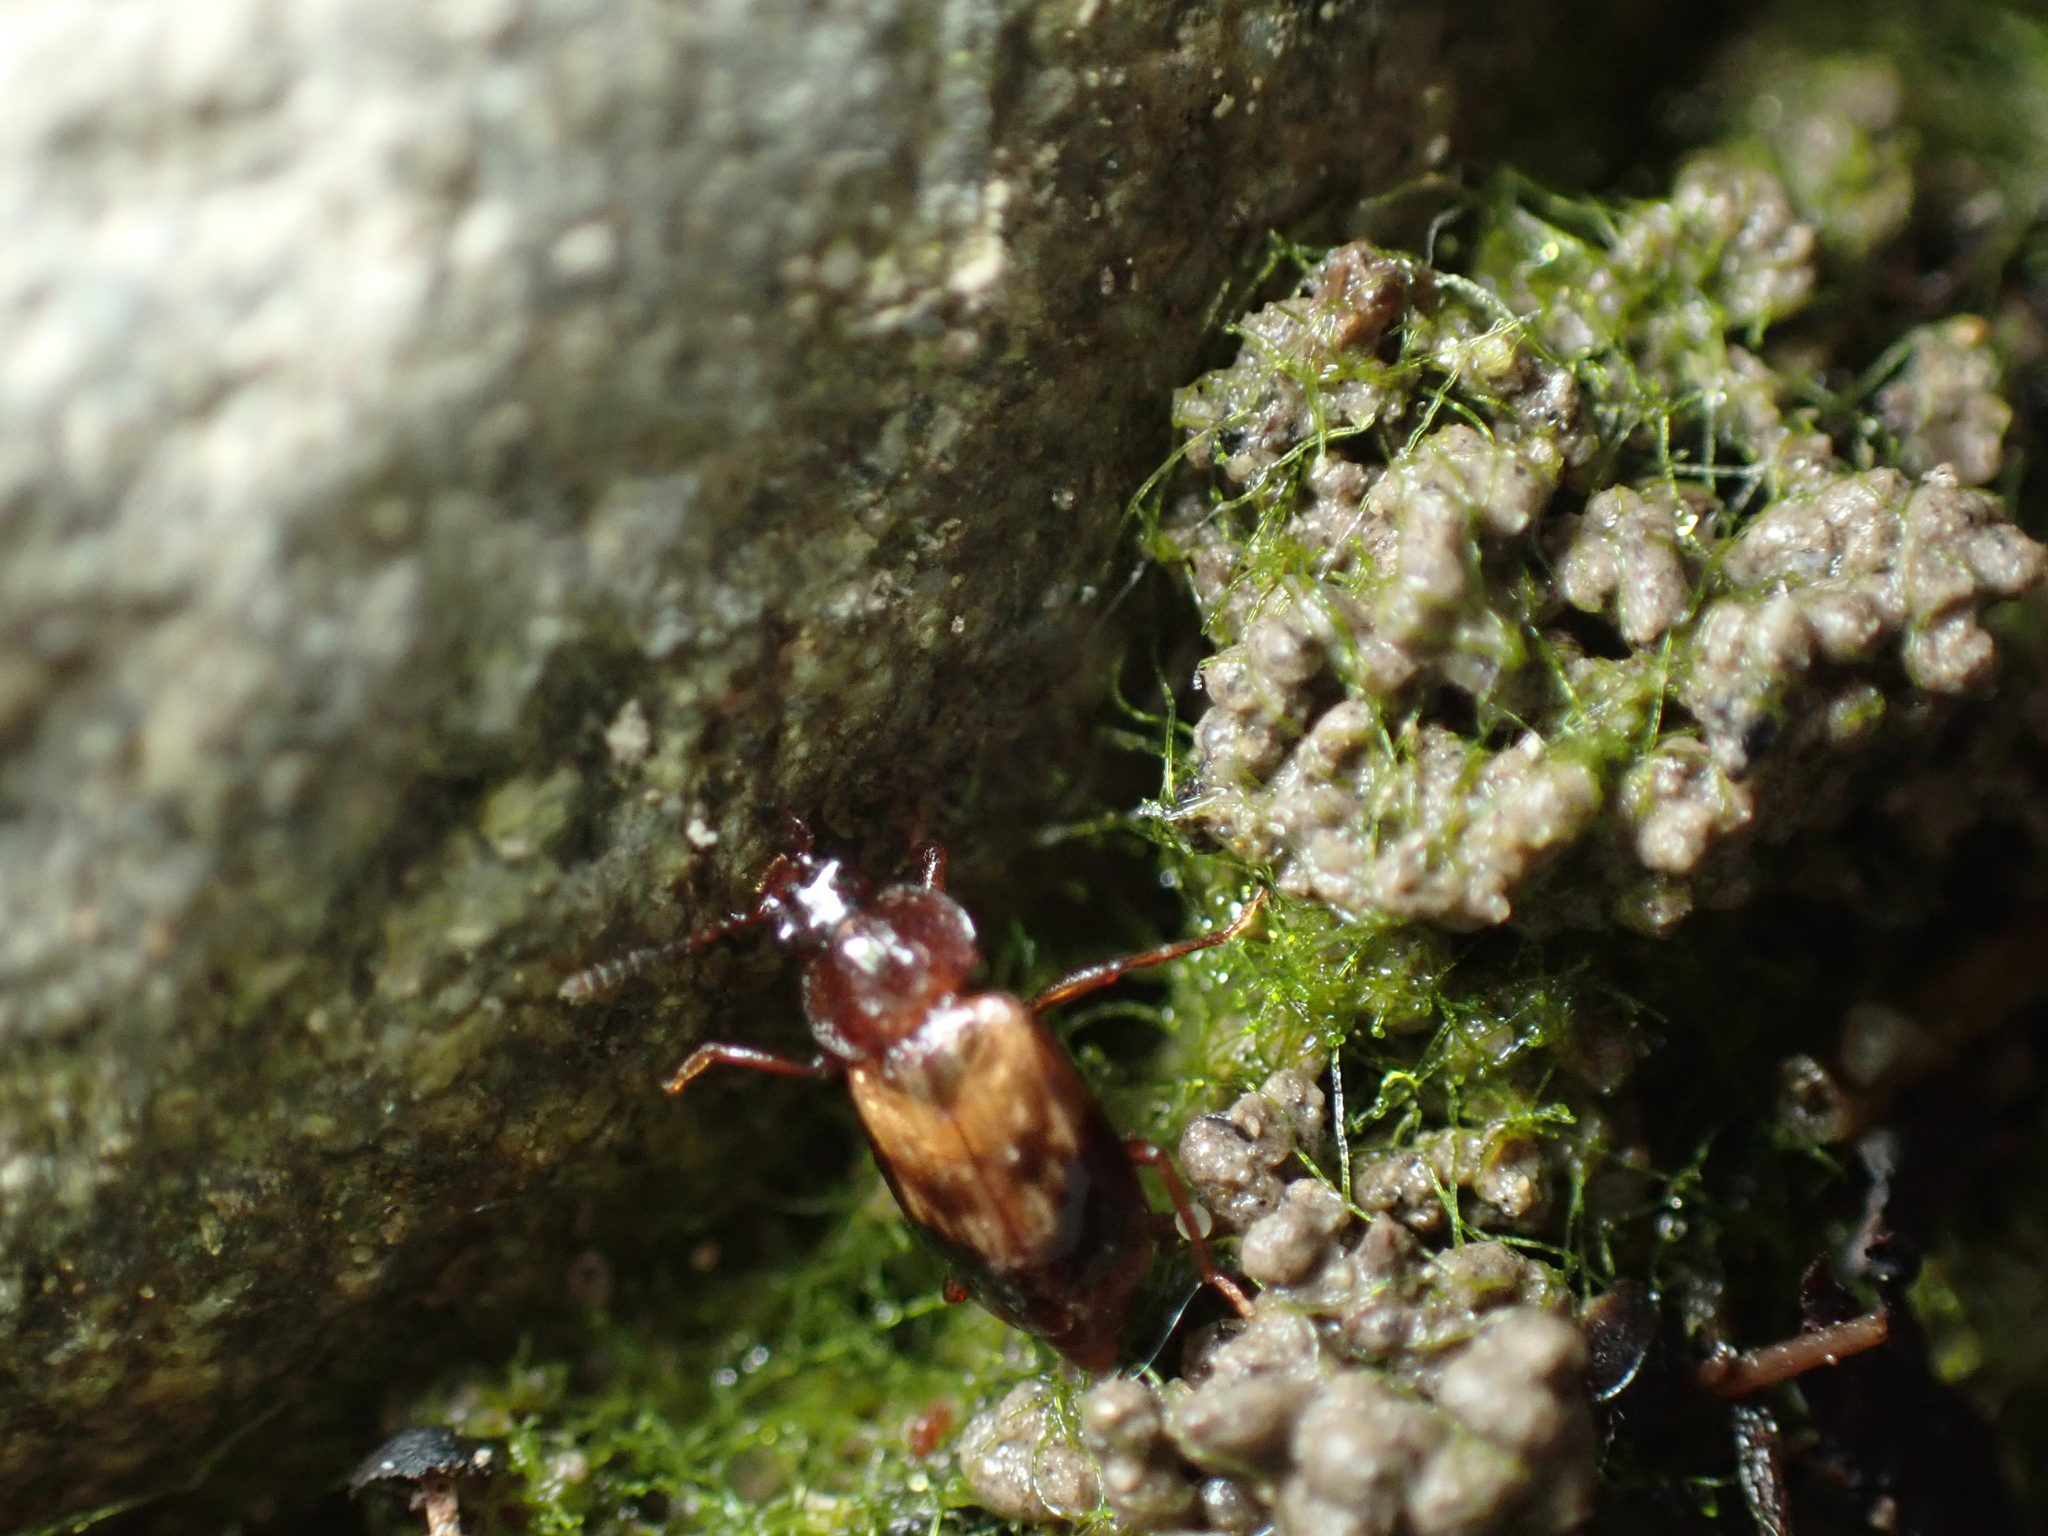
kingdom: Animalia
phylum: Arthropoda
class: Insecta
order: Coleoptera
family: Staphylinidae
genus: Deinopteroloma
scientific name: Deinopteroloma subcostatum
